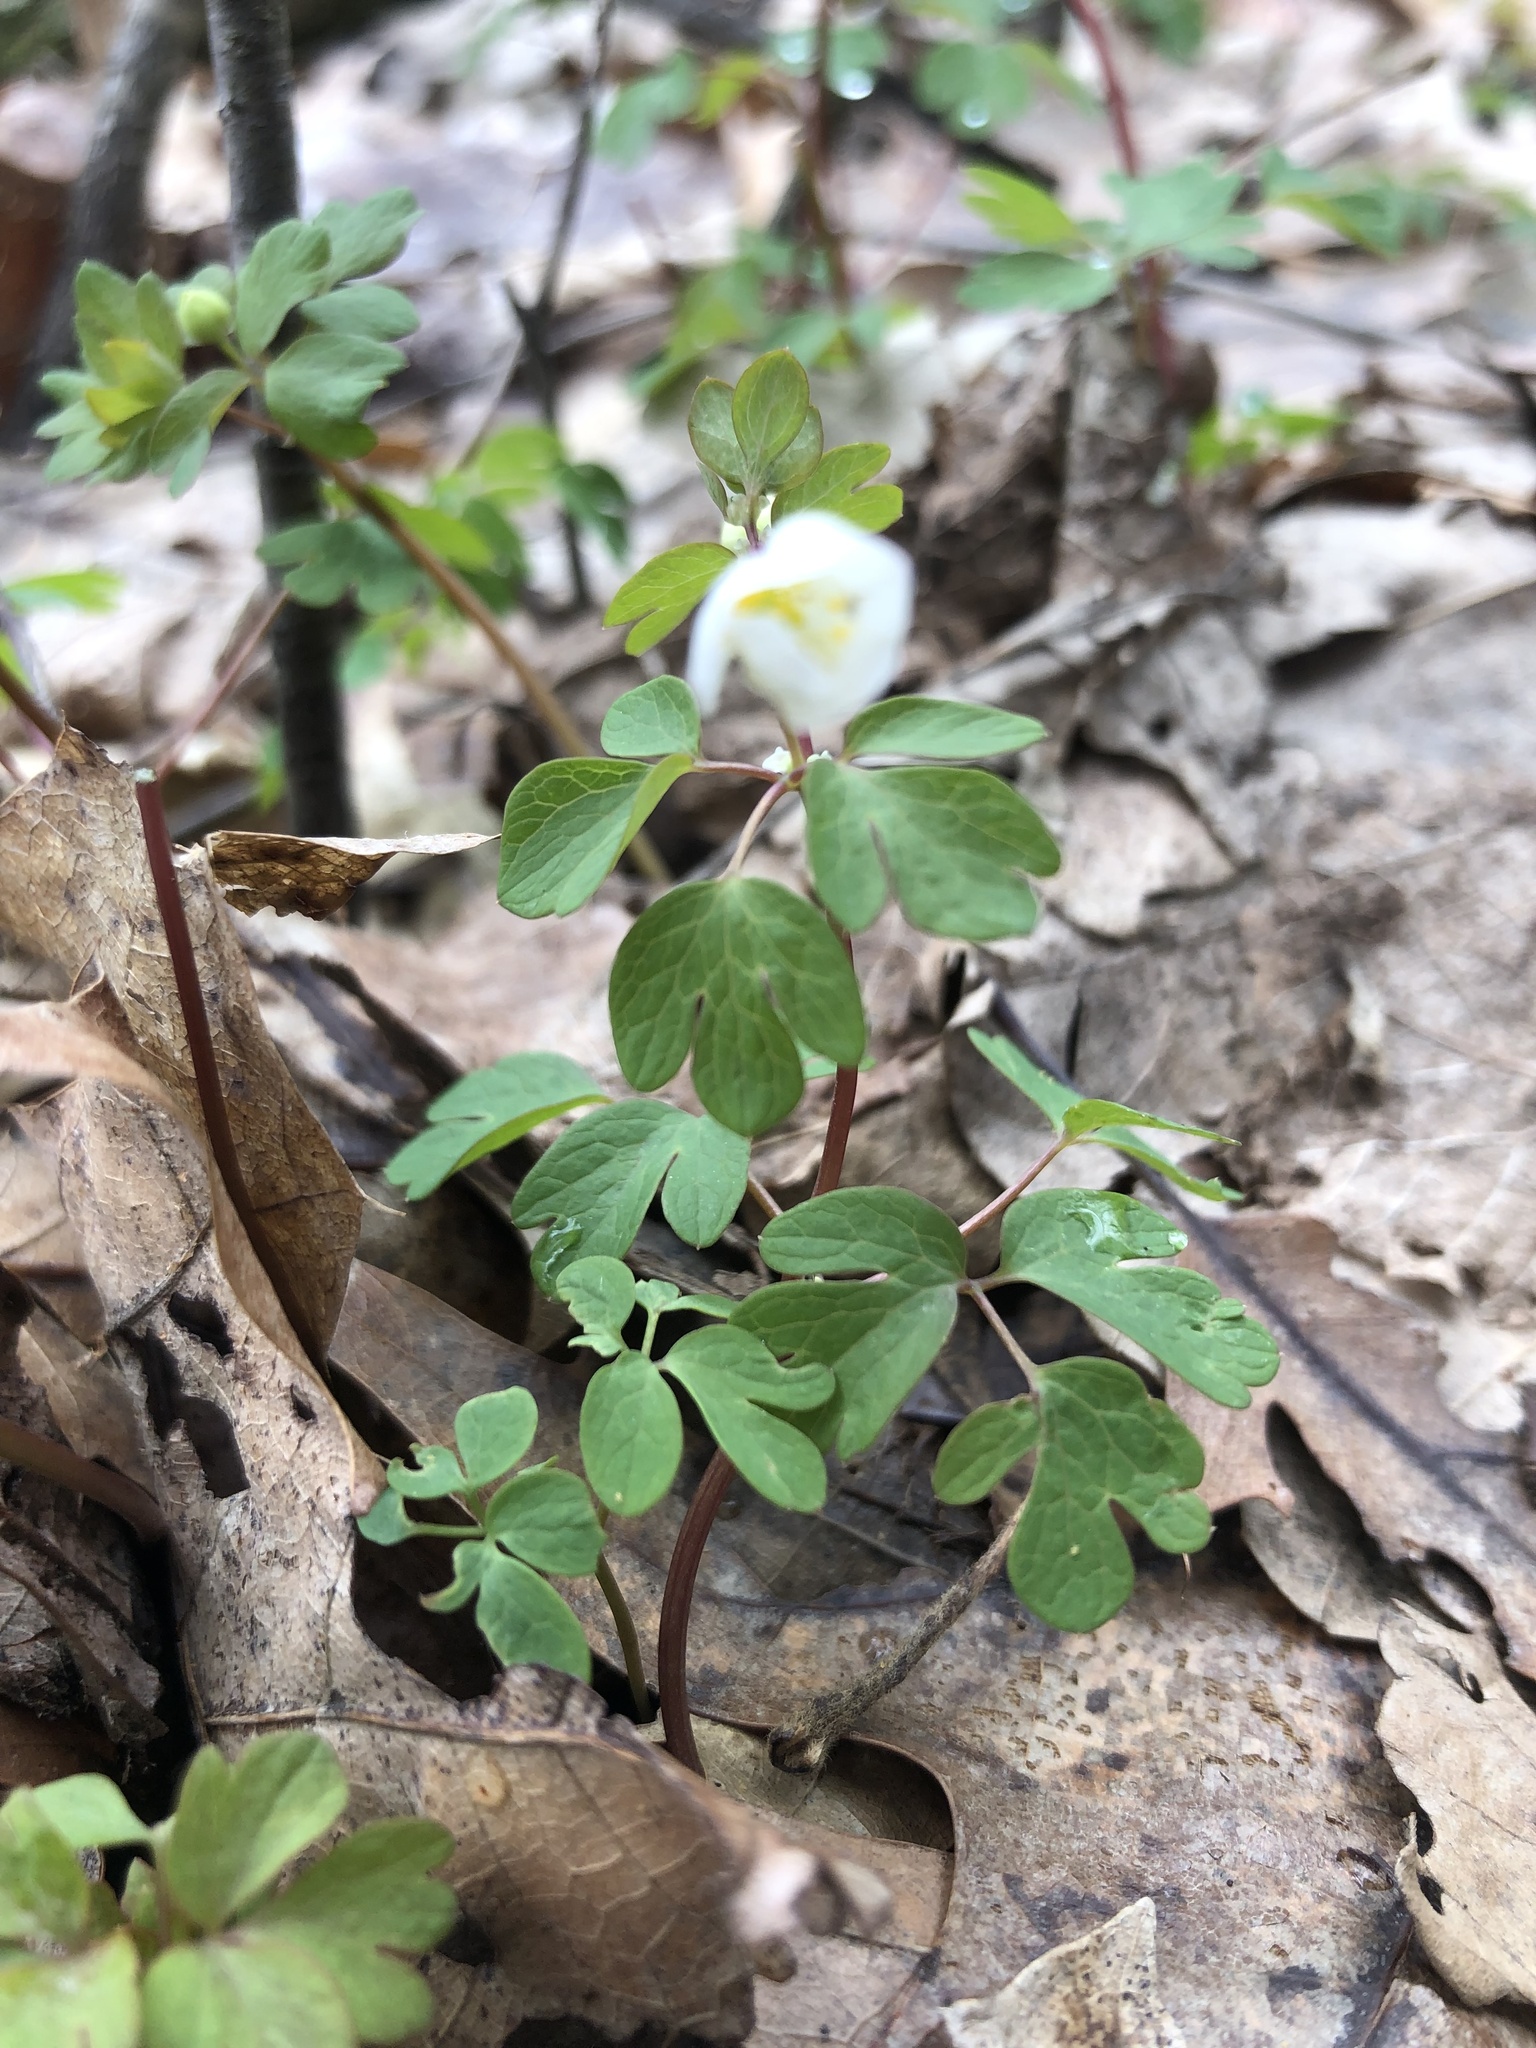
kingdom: Plantae
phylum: Tracheophyta
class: Magnoliopsida
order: Ranunculales
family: Ranunculaceae
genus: Enemion
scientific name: Enemion biternatum
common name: Eastern false rue-anemone
